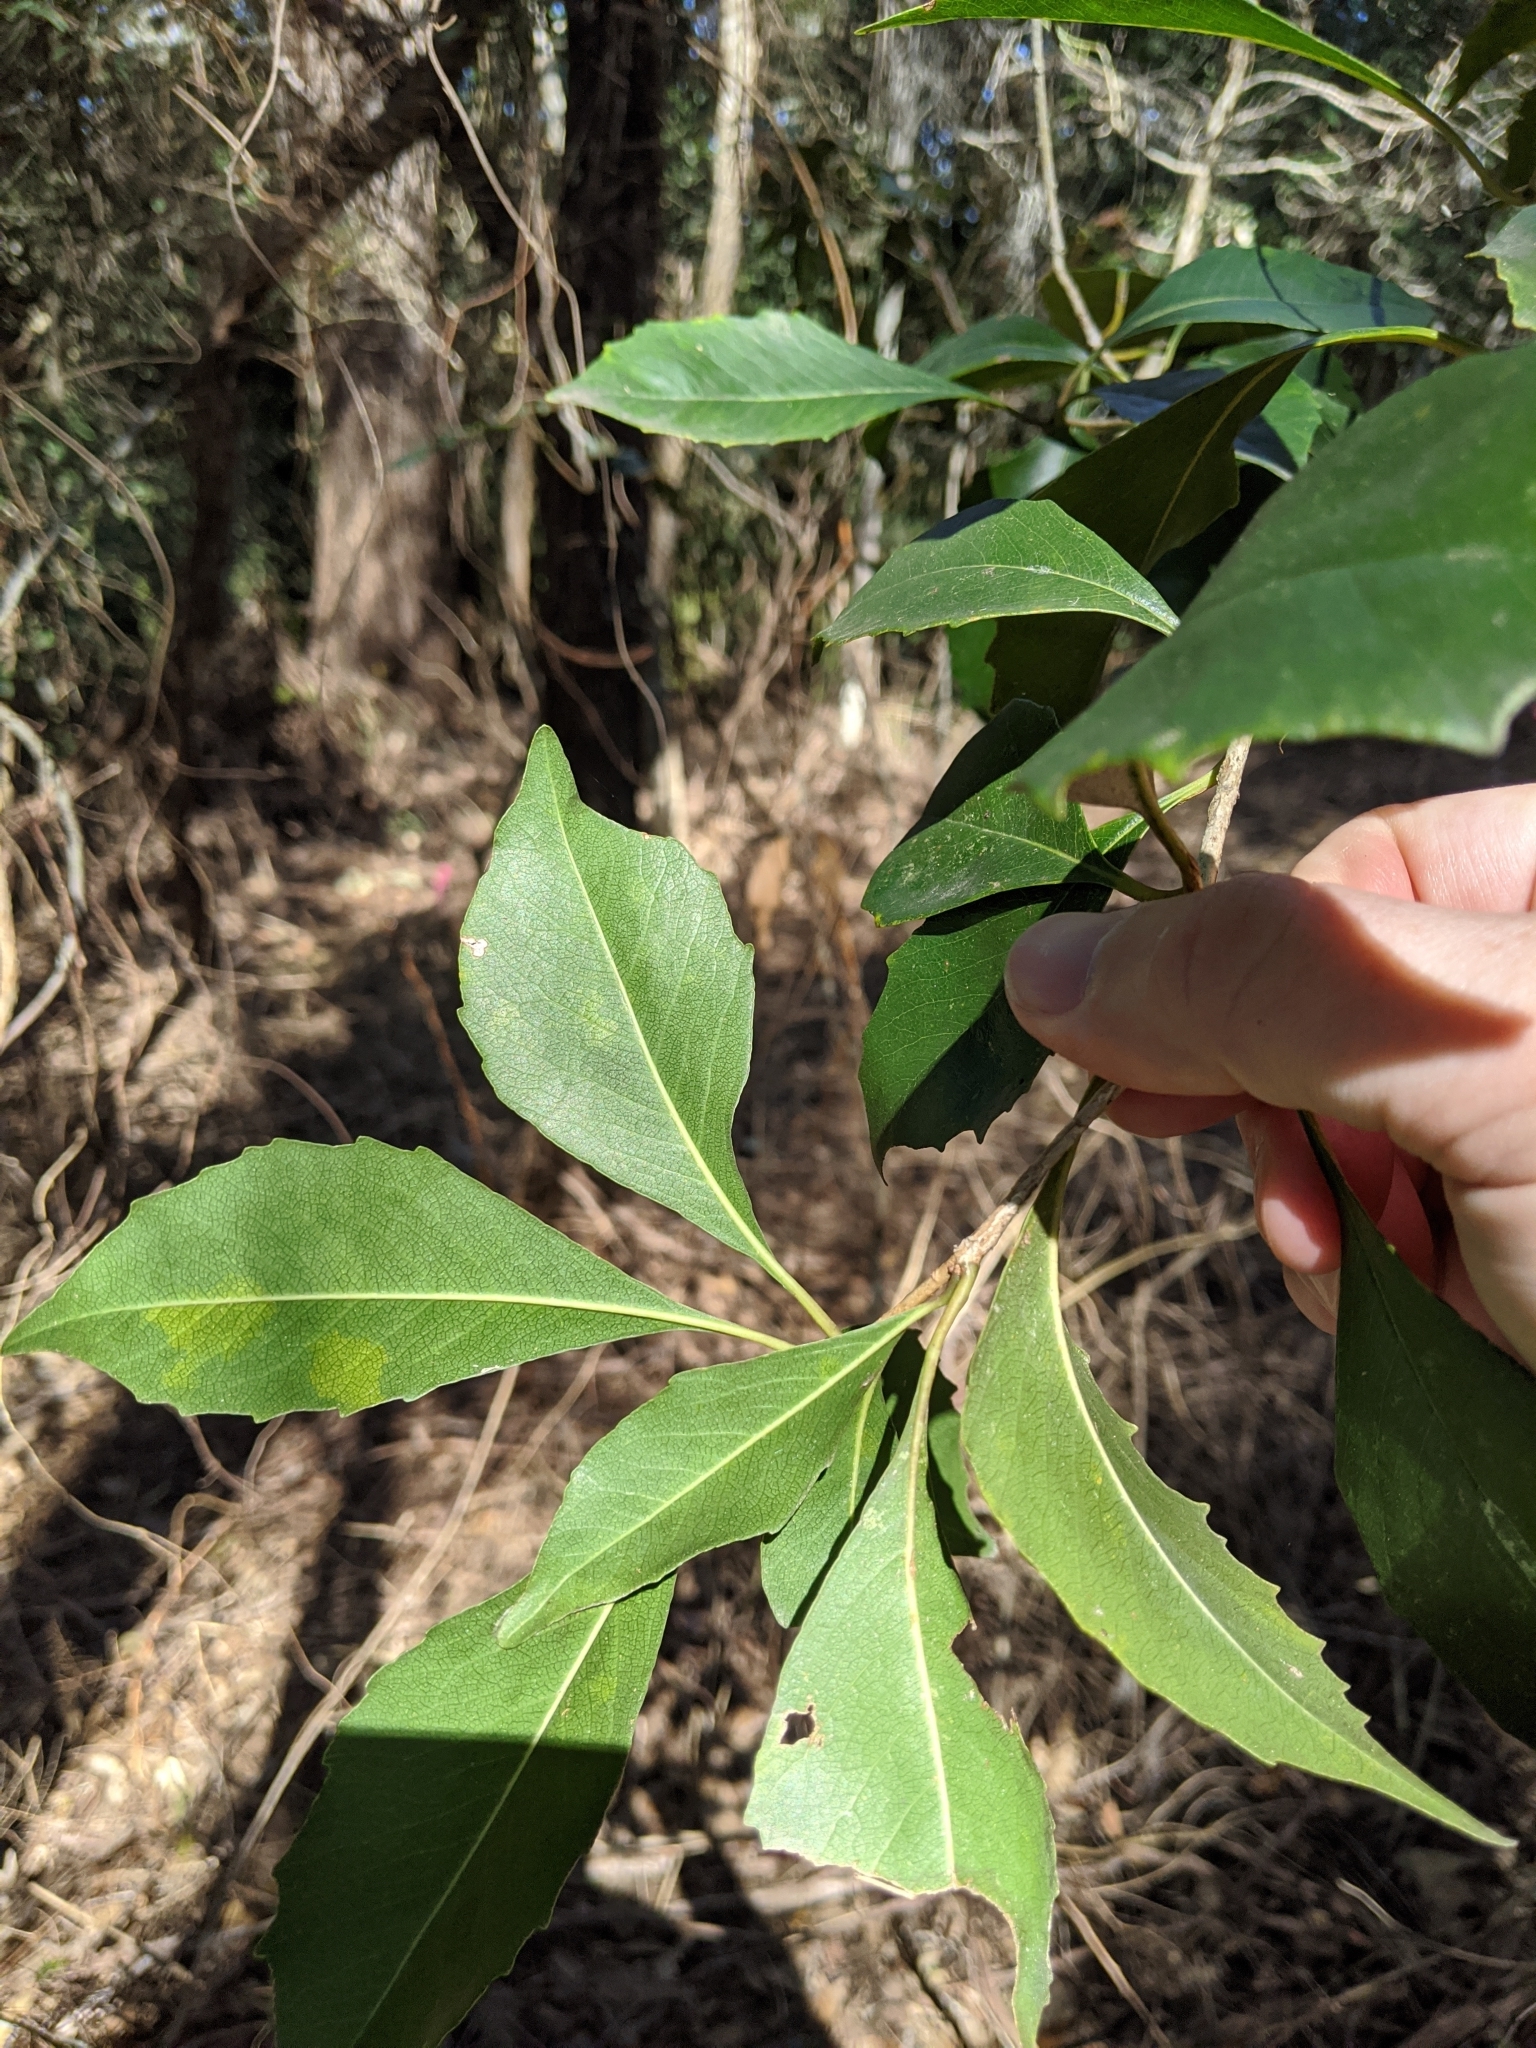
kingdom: Plantae
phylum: Tracheophyta
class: Magnoliopsida
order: Apiales
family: Pittosporaceae
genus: Auranticarpa
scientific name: Auranticarpa rhombifolia
